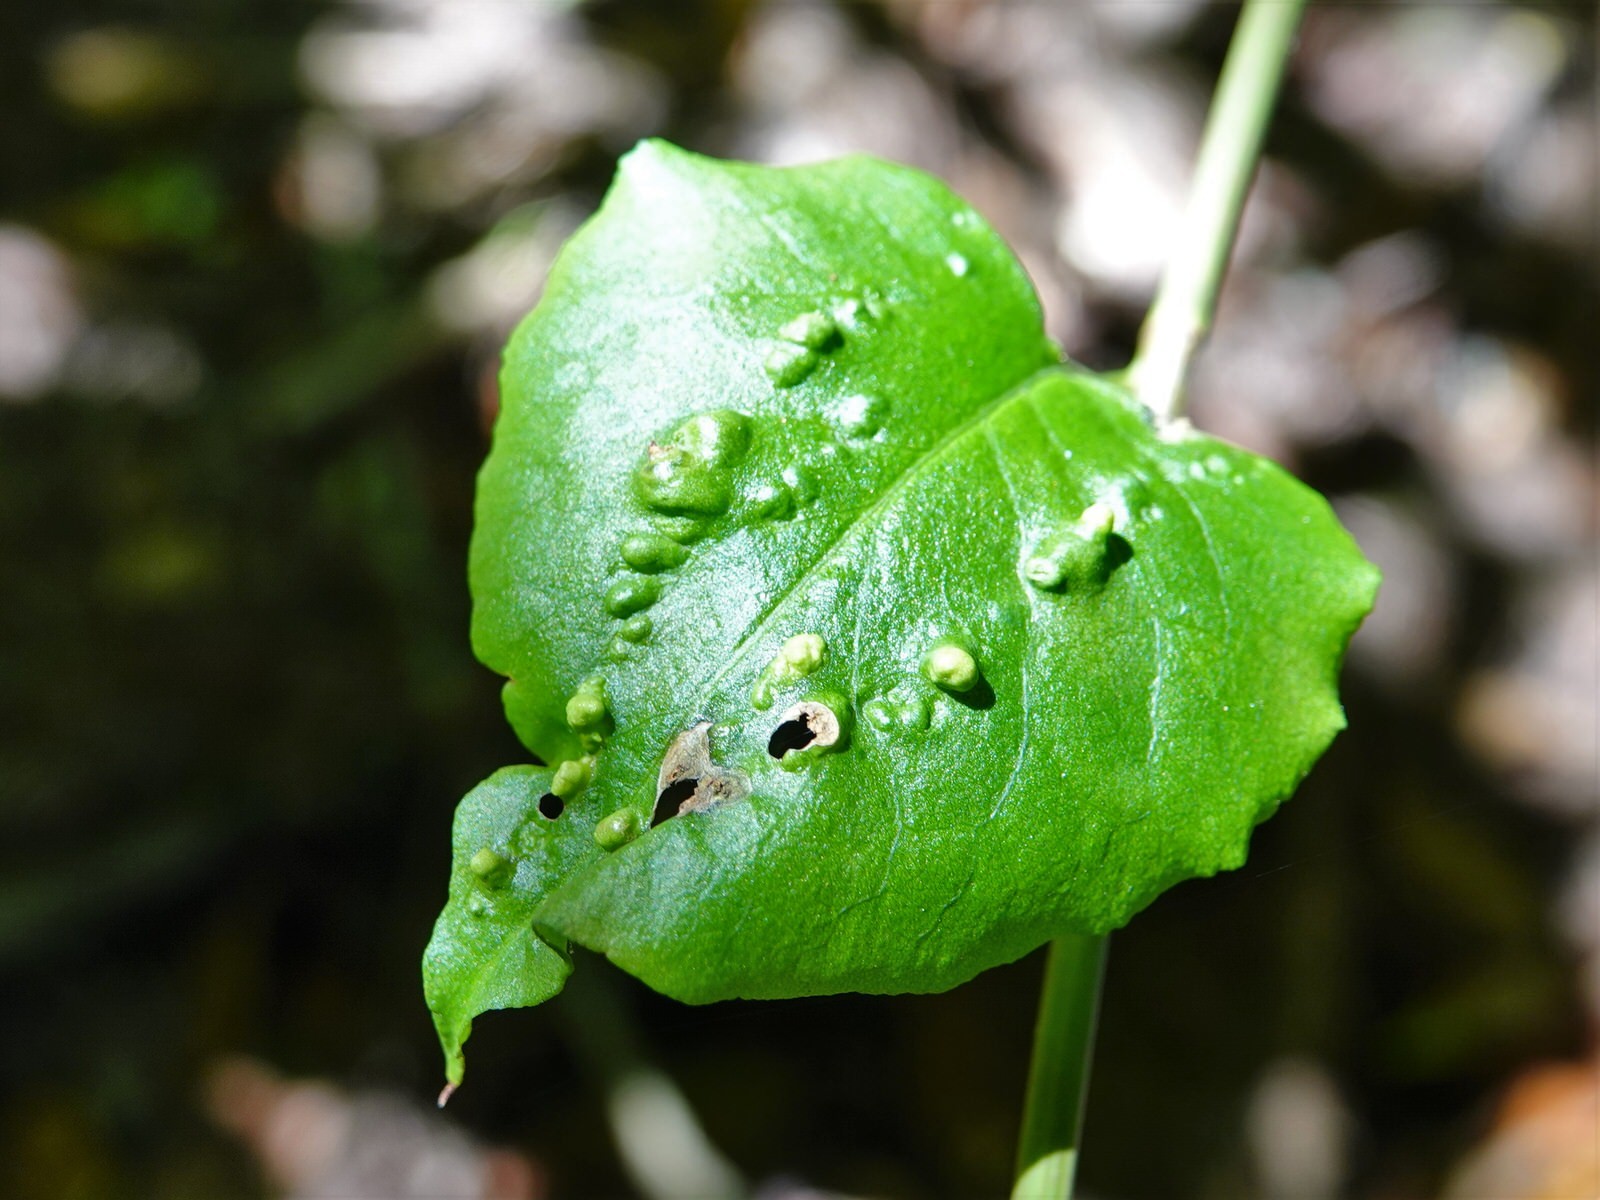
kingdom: Animalia
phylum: Arthropoda
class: Arachnida
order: Trombidiformes
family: Eriophyidae
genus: Aceria
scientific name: Aceria lamii
